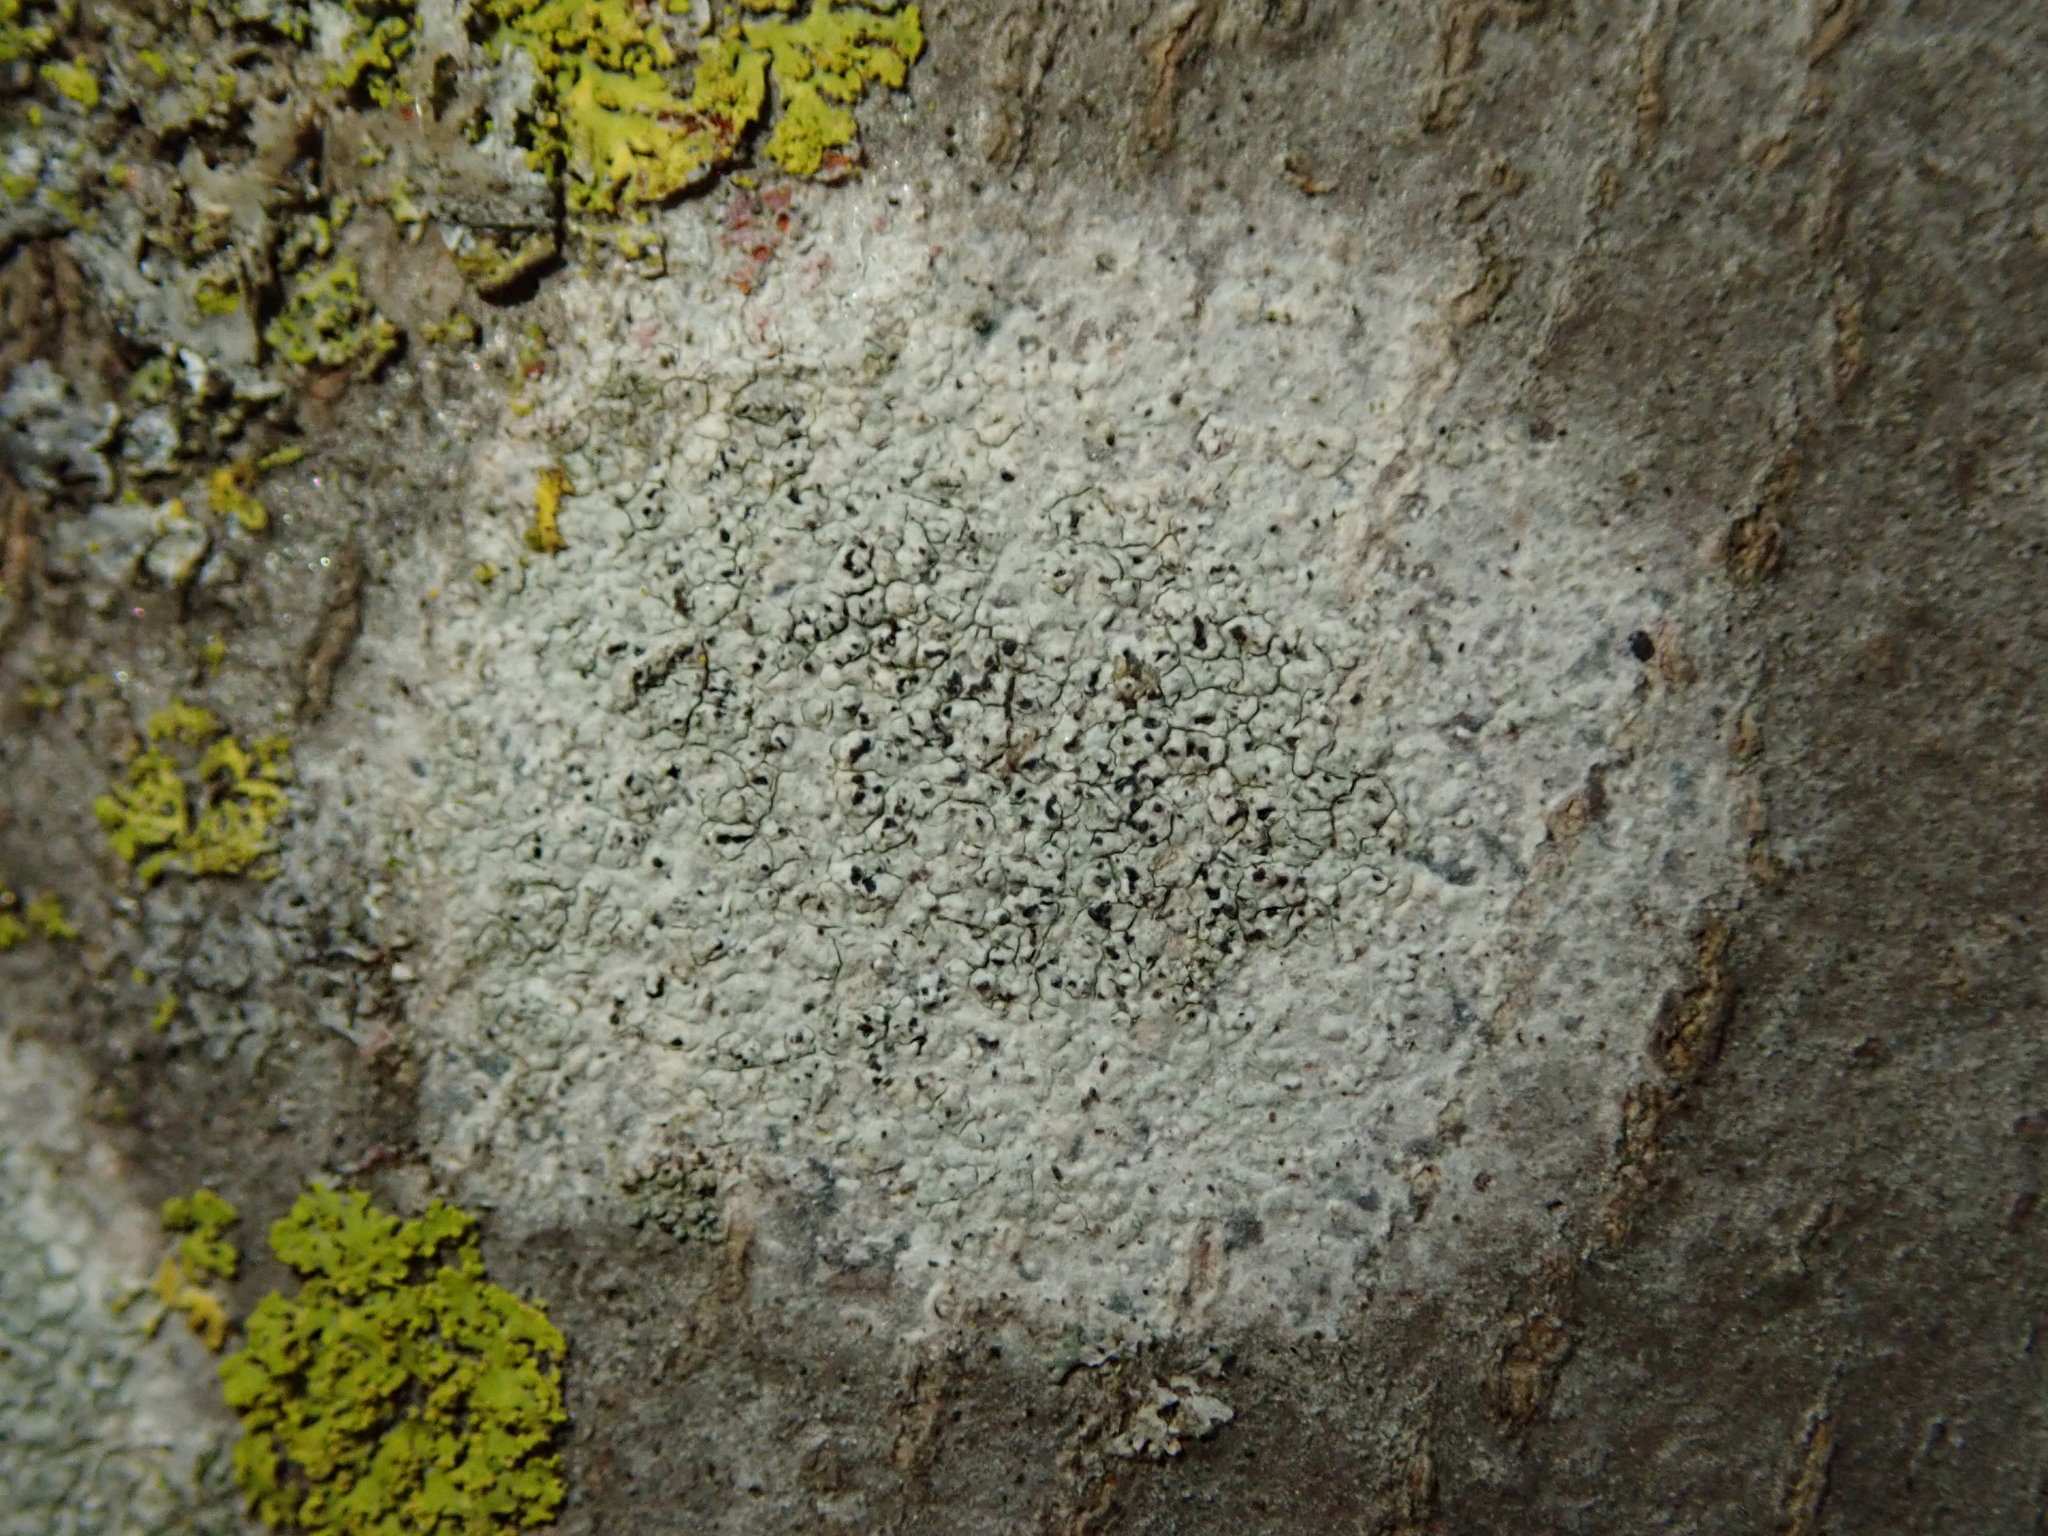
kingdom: Fungi
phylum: Ascomycota
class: Lecanoromycetes
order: Lecanorales
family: Lecanoraceae
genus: Lecanora
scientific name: Lecanora hybocarpa
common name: Bumpy rim-lichen
